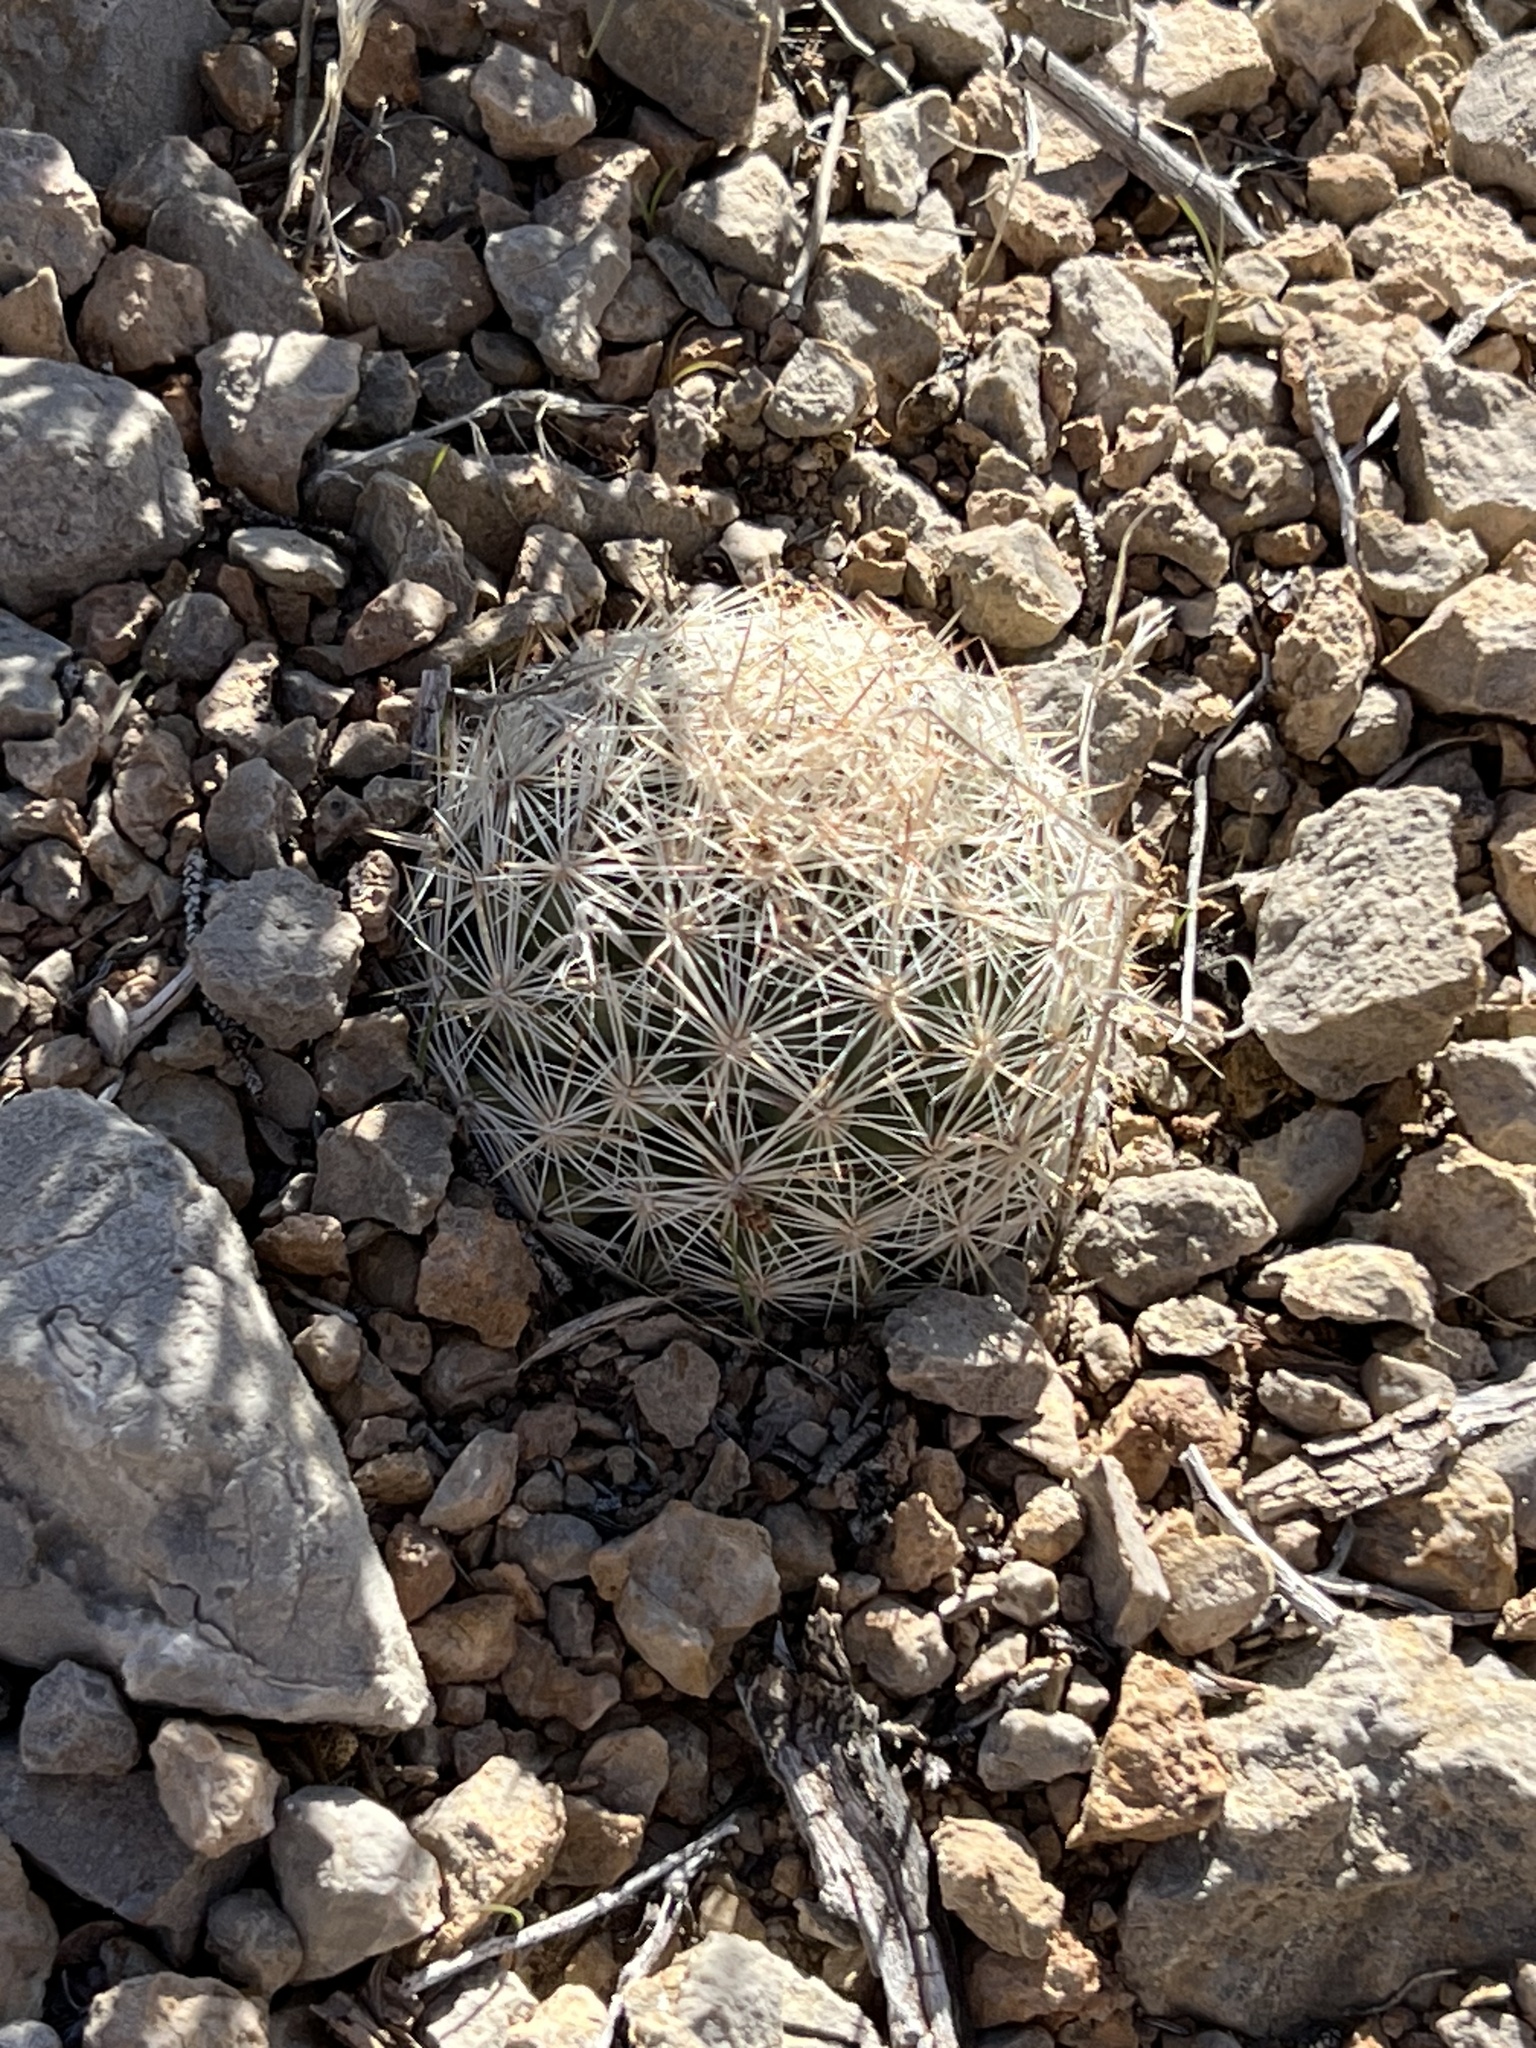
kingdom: Plantae
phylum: Tracheophyta
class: Magnoliopsida
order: Caryophyllales
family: Cactaceae
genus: Pelecyphora
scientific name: Pelecyphora dasyacantha
